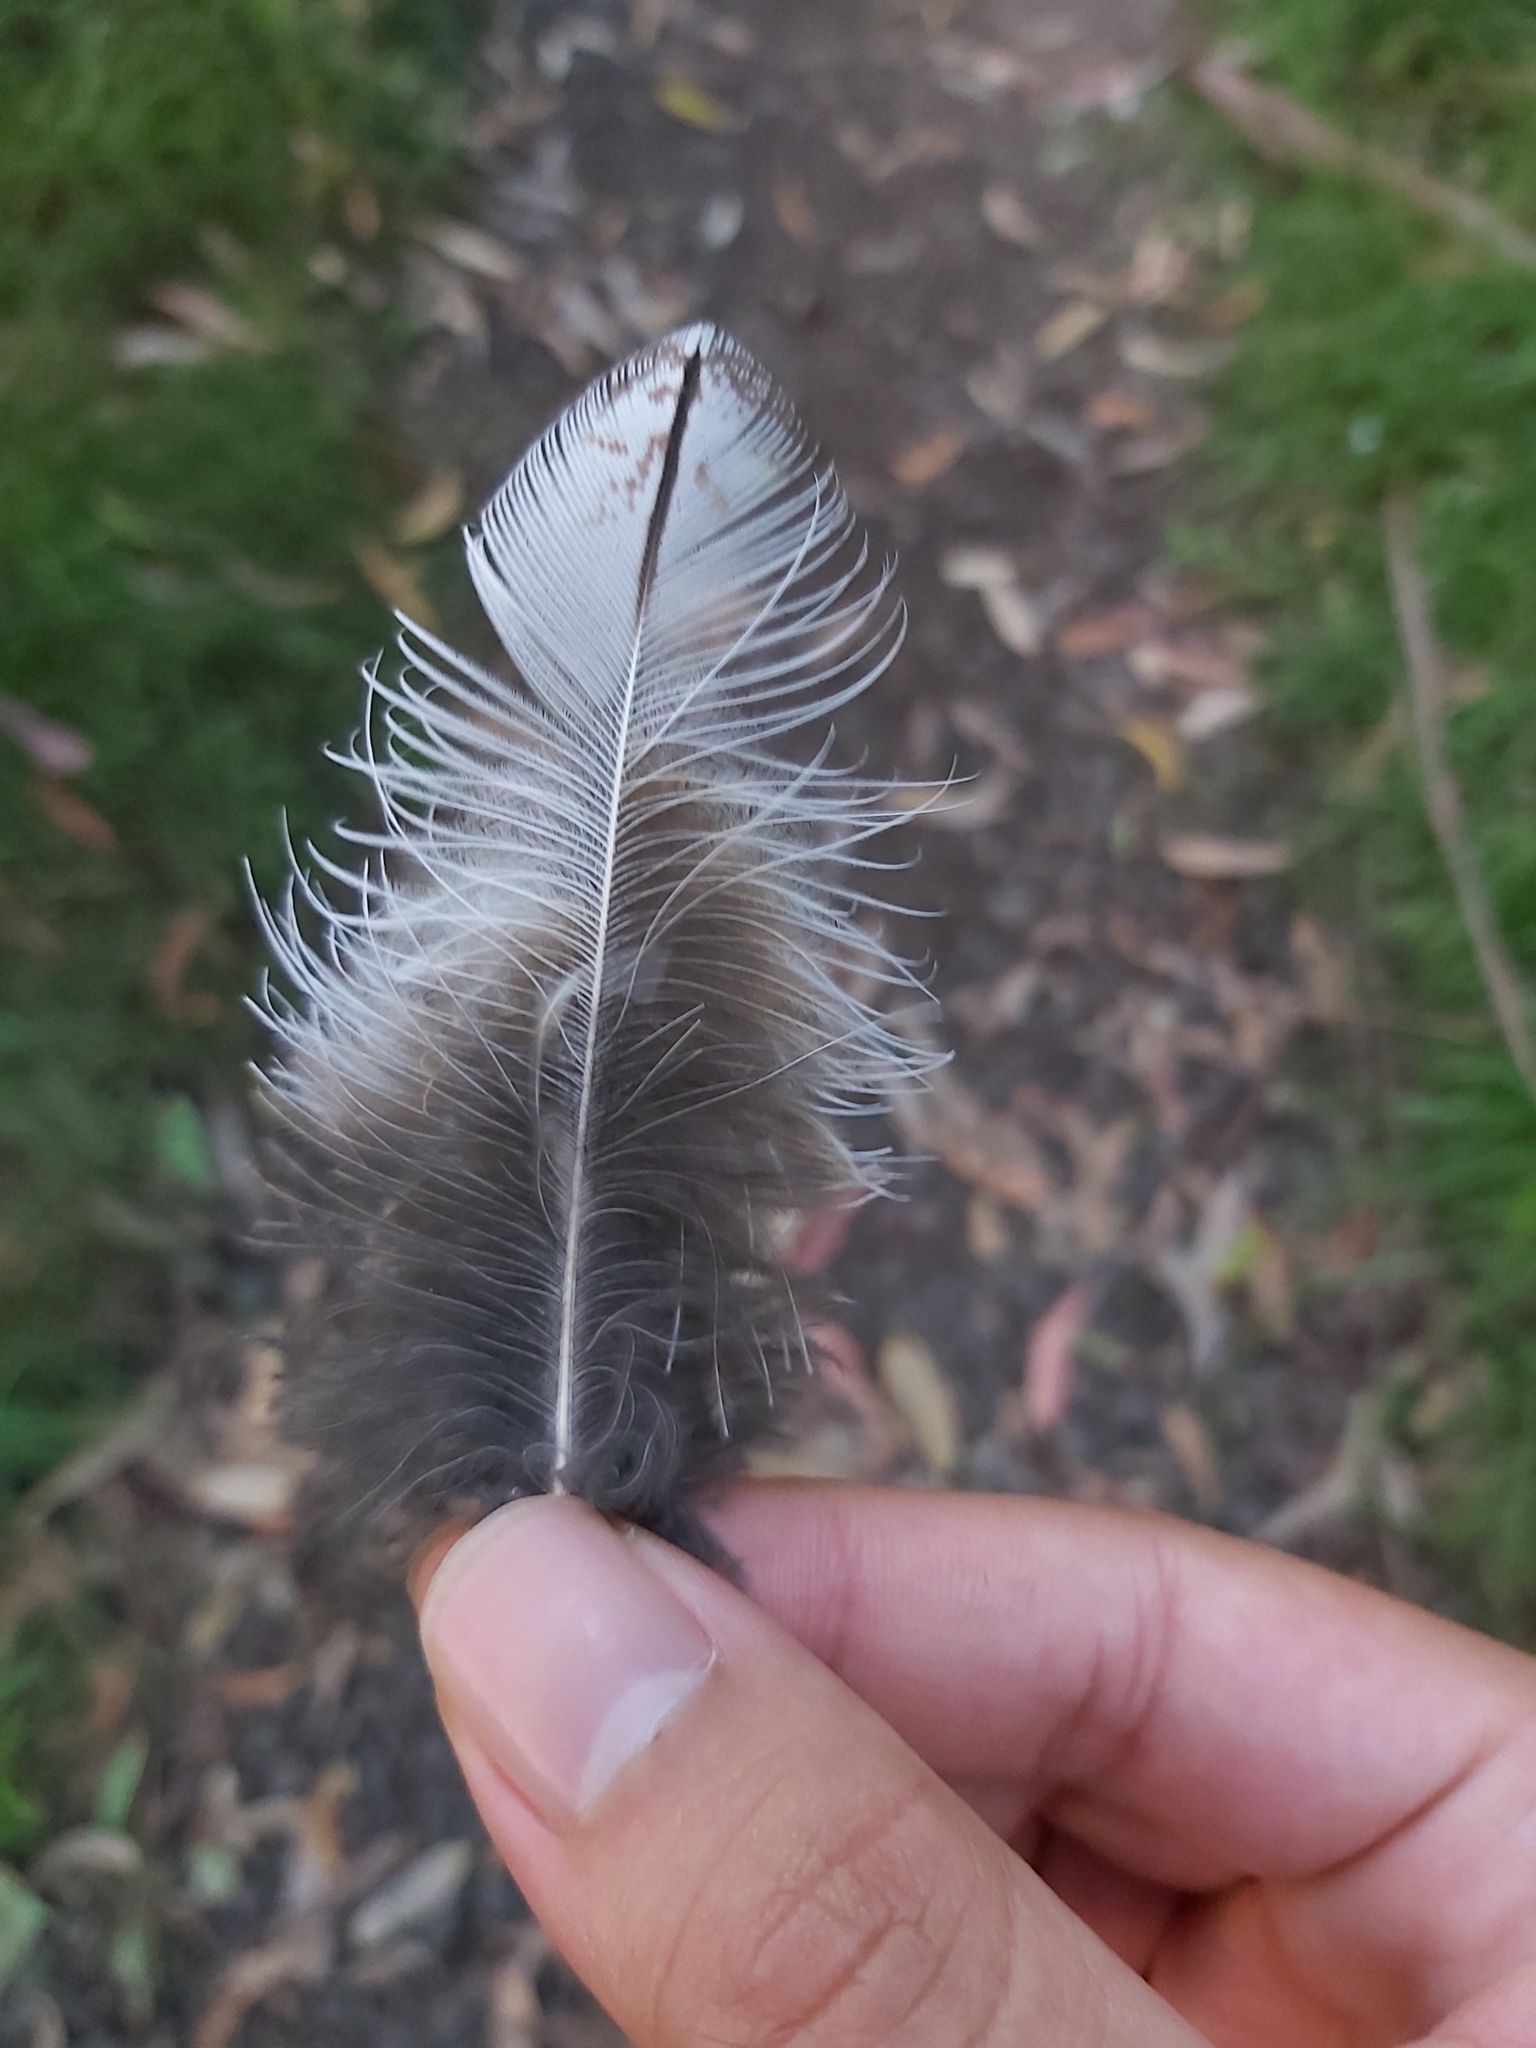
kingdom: Animalia
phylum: Chordata
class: Aves
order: Caprimulgiformes
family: Podargidae
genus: Podargus
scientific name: Podargus strigoides
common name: Tawny frogmouth
